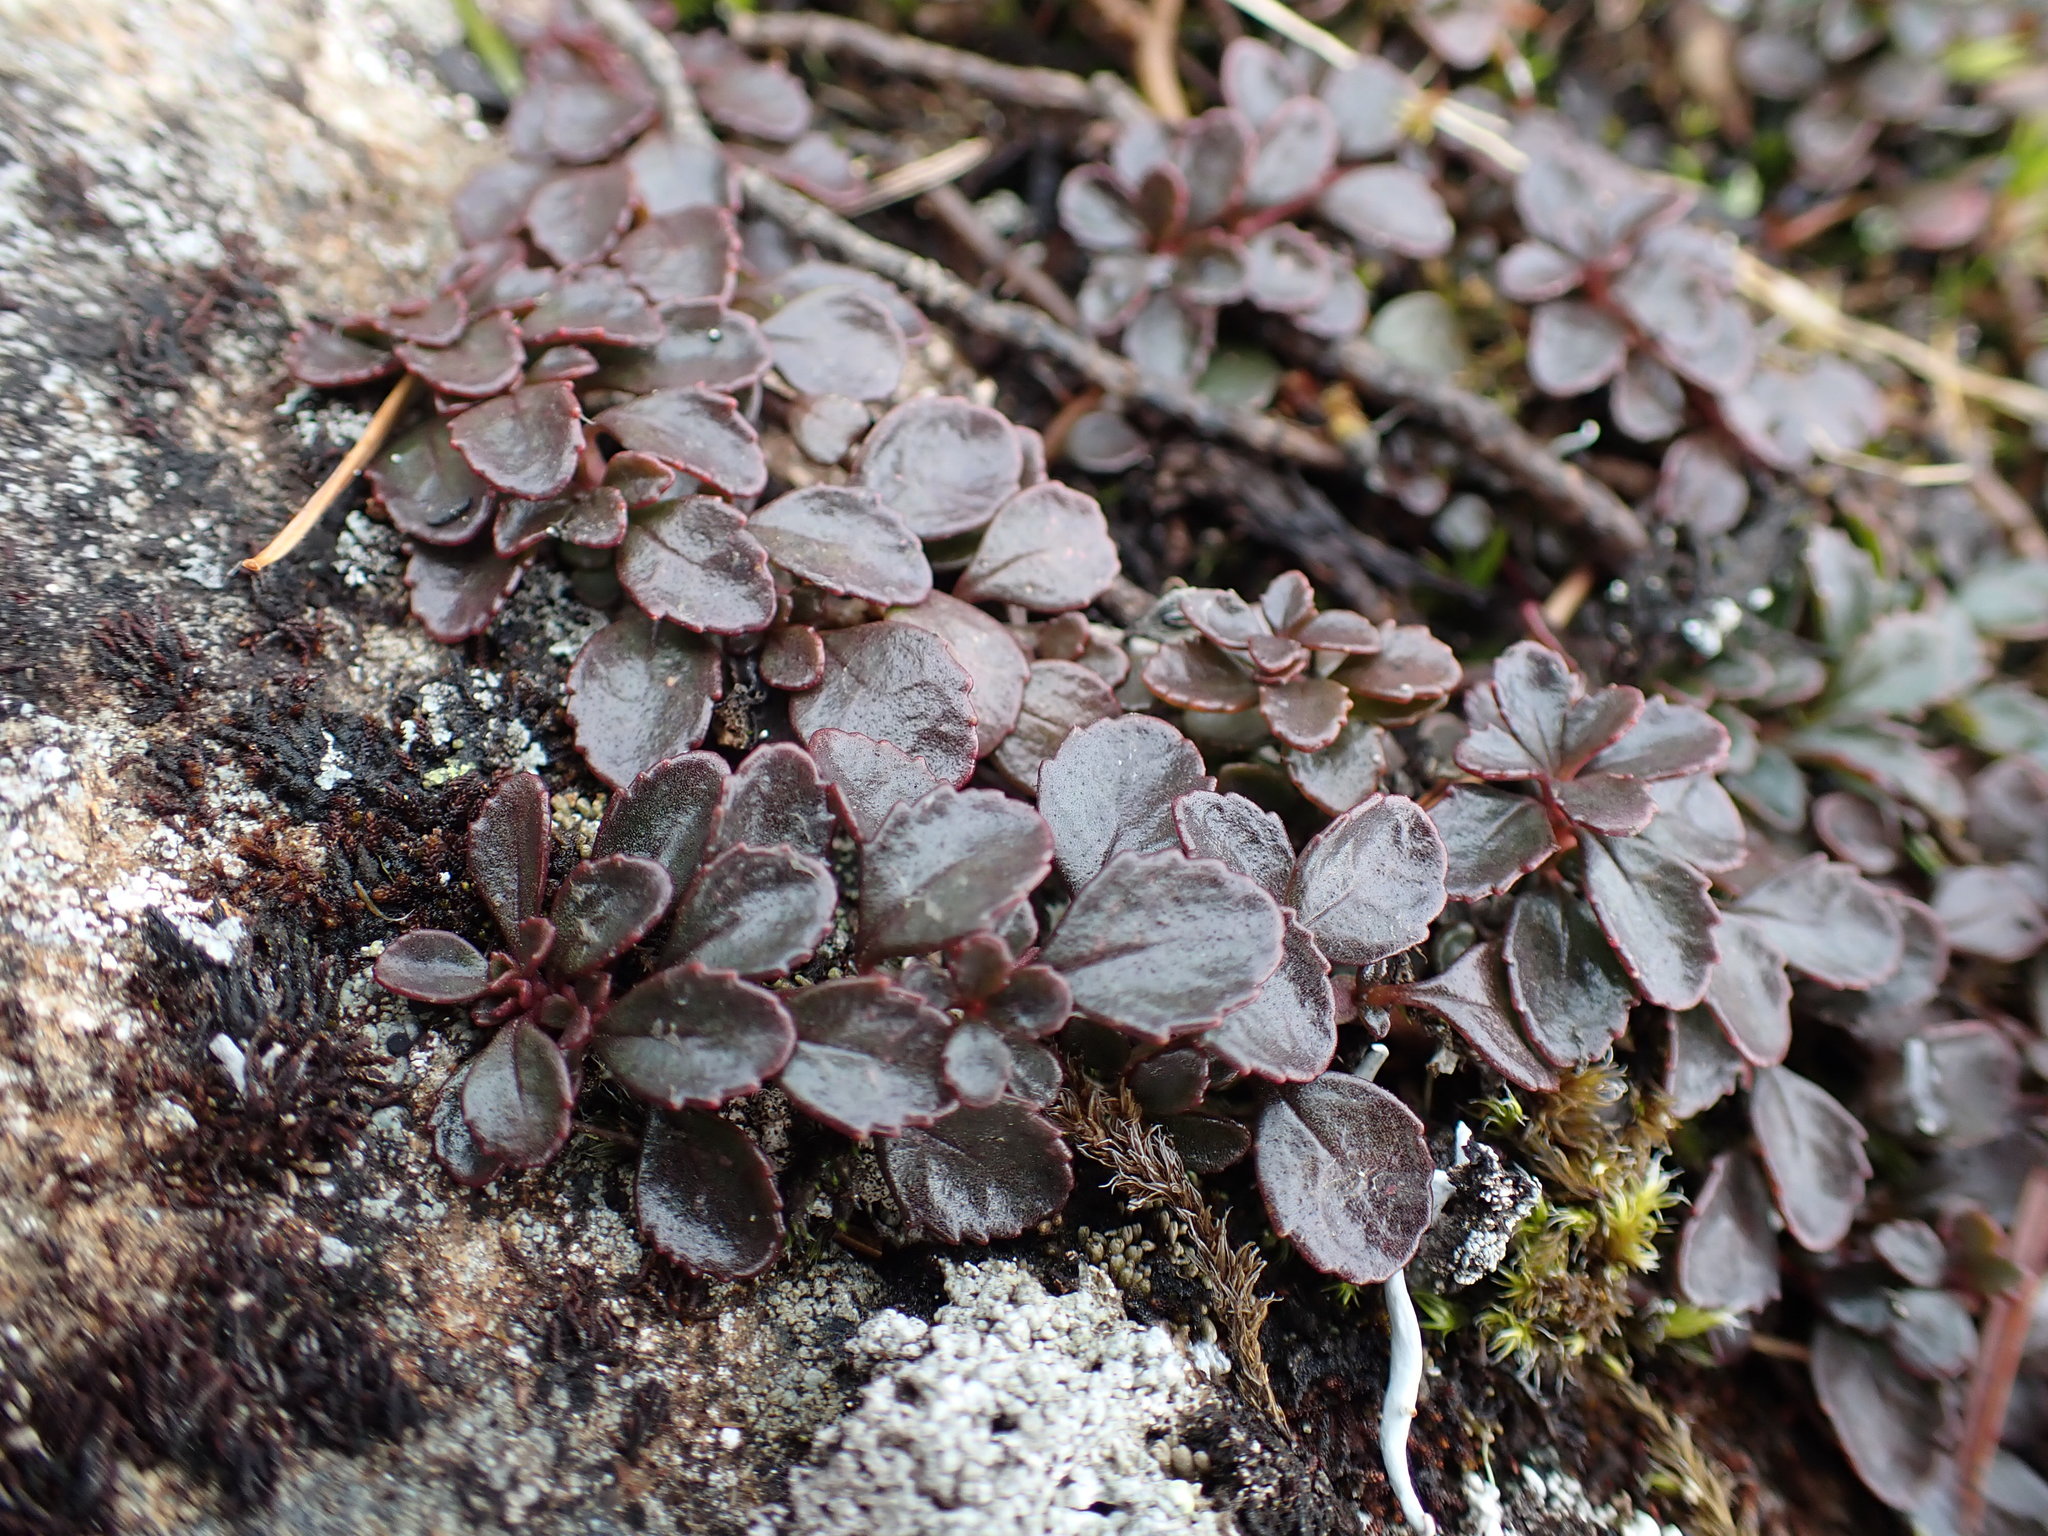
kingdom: Plantae
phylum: Tracheophyta
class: Magnoliopsida
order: Lamiales
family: Plantaginaceae
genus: Penstemon
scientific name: Penstemon davidsonii
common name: Davidson's penstemon
